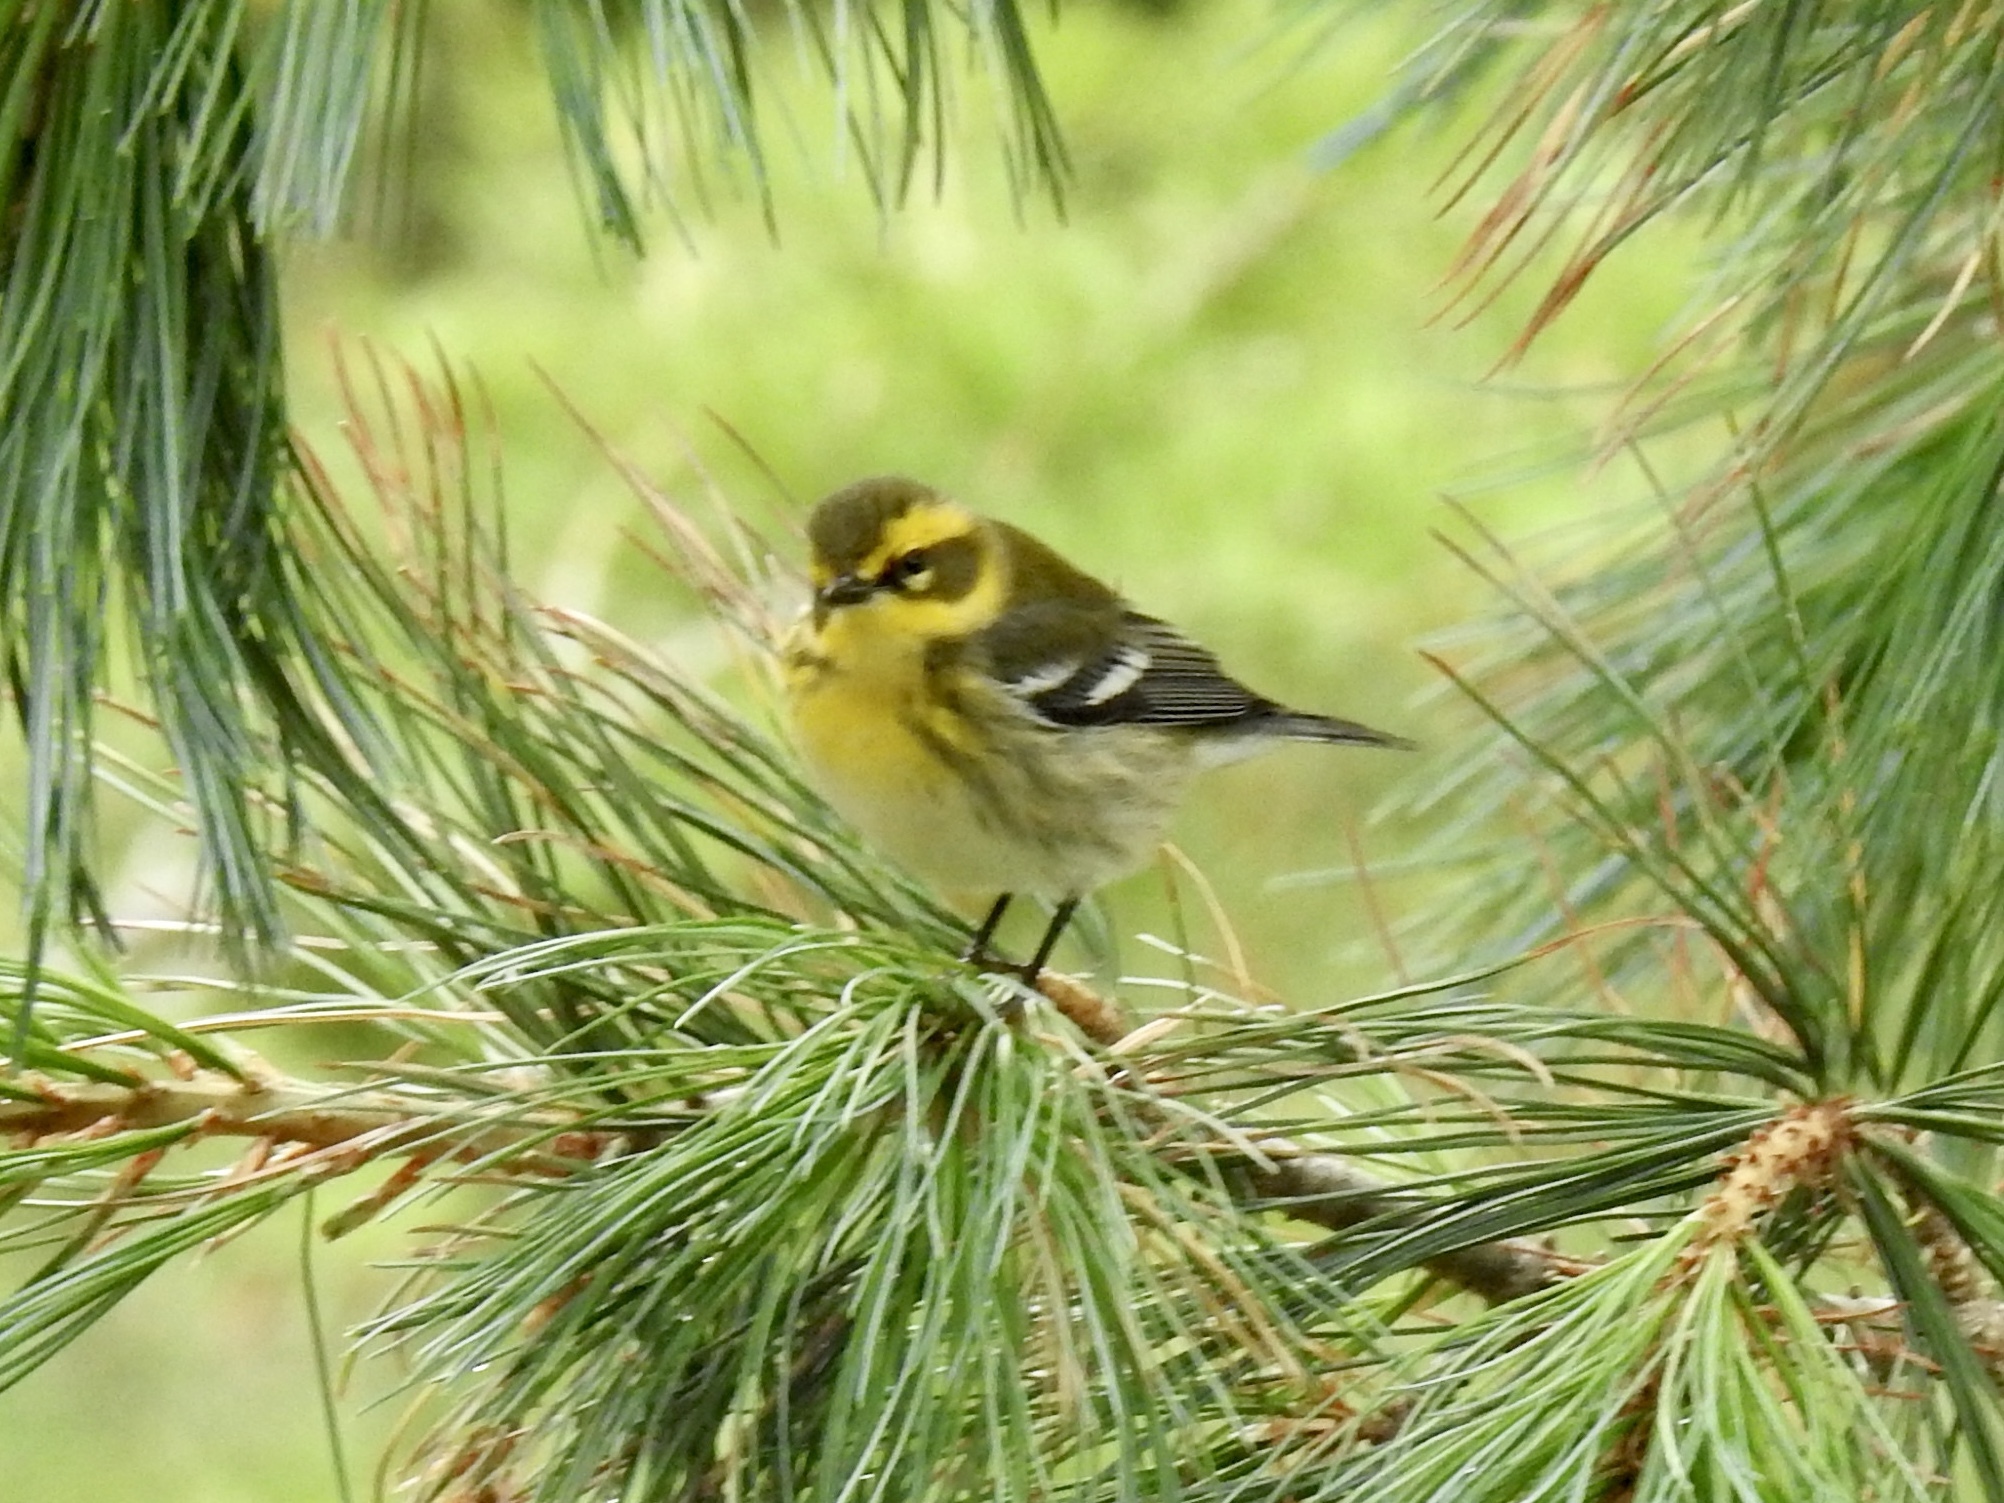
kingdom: Animalia
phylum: Chordata
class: Aves
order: Passeriformes
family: Parulidae
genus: Setophaga
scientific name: Setophaga townsendi
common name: Townsend's warbler
